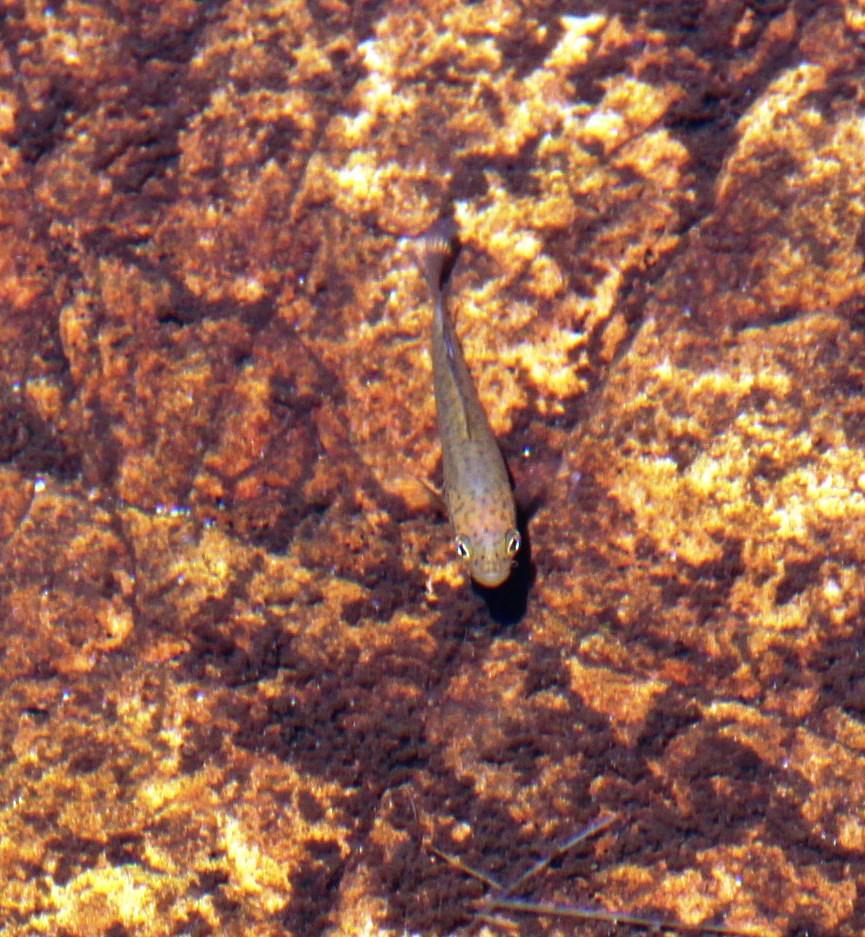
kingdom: Animalia
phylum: Chordata
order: Perciformes
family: Anabantidae
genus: Sandelia
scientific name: Sandelia capensis
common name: Cape kurper
